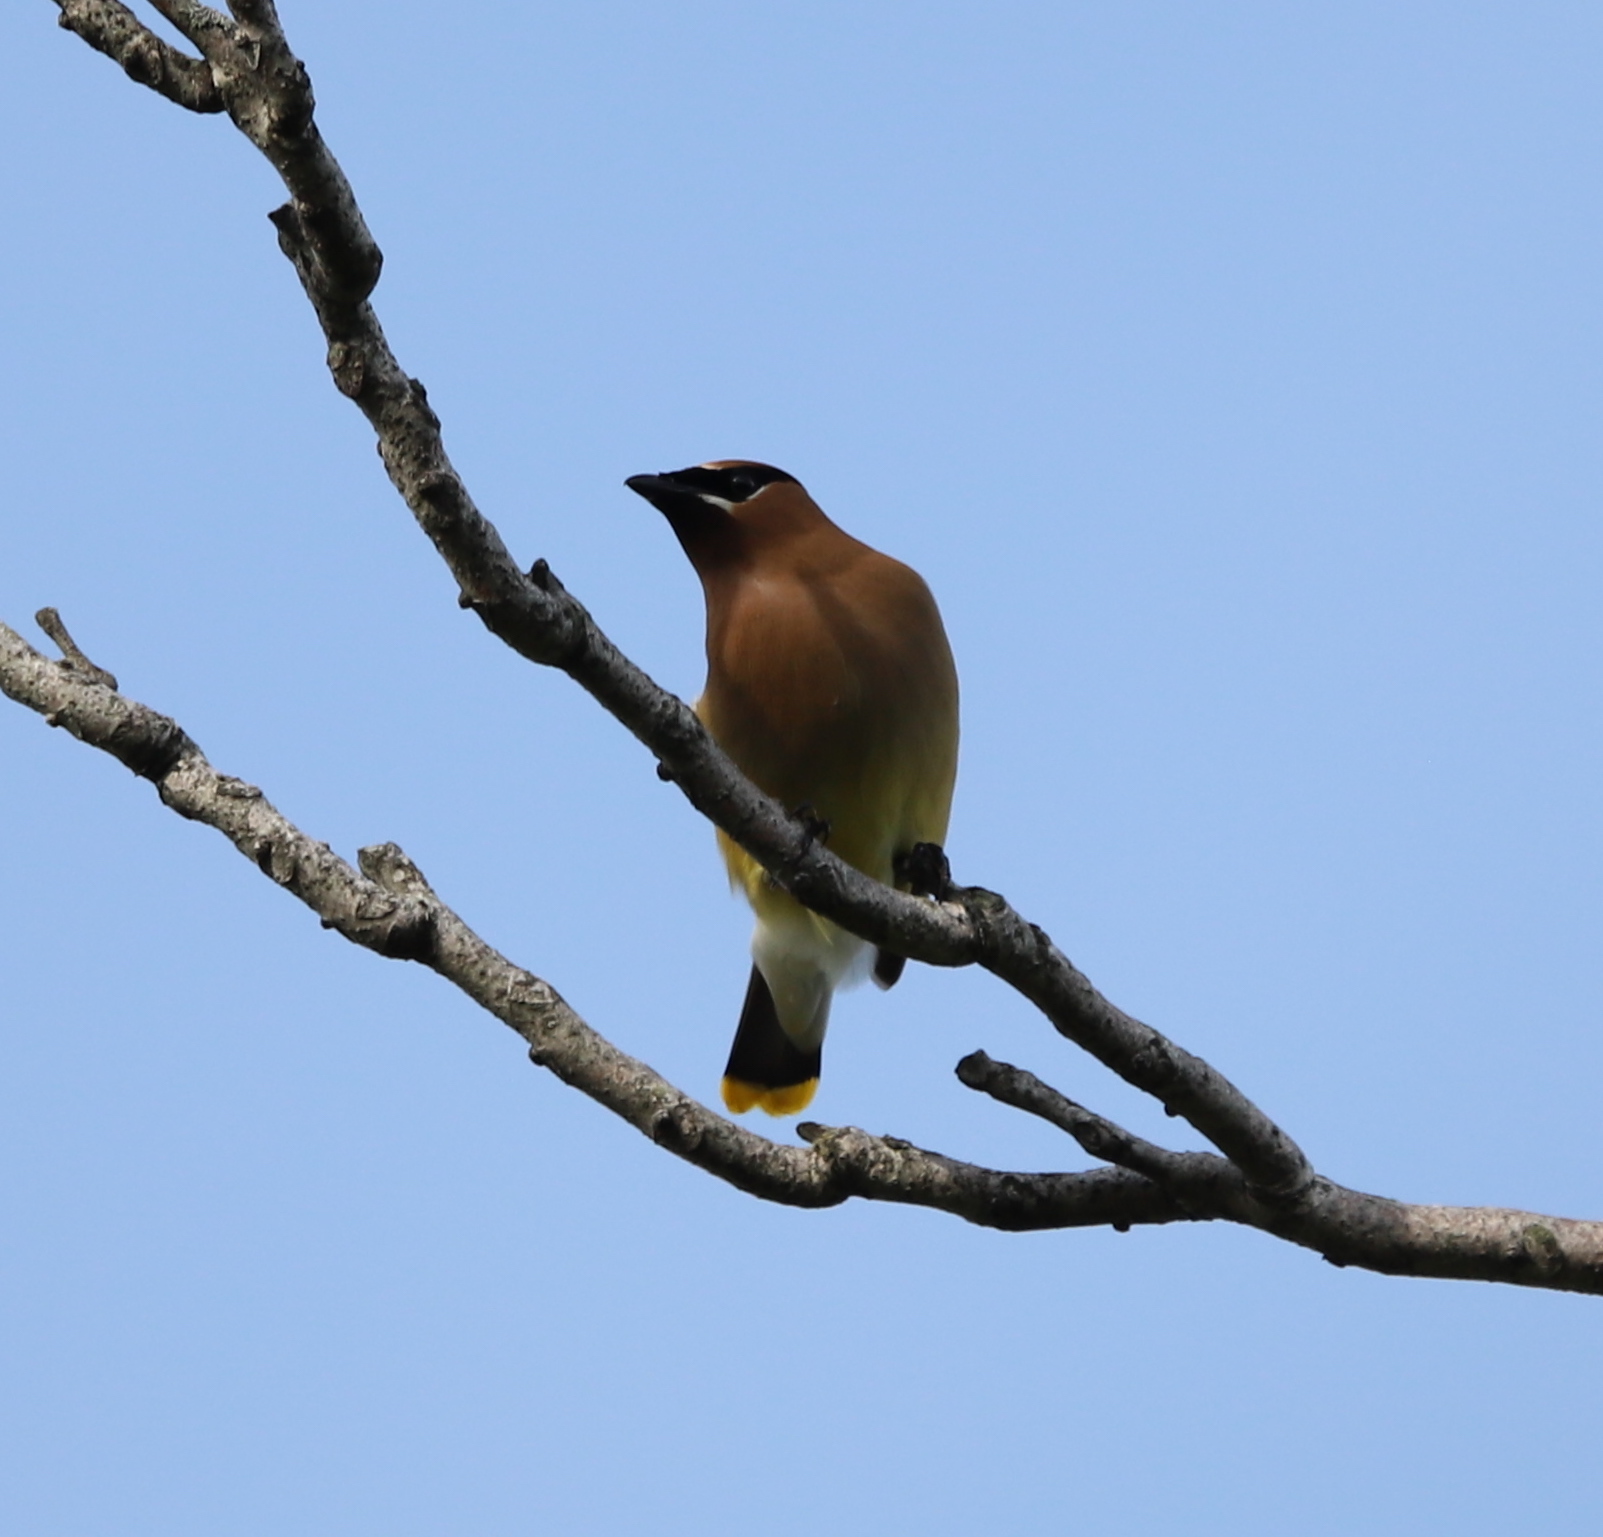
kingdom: Animalia
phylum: Chordata
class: Aves
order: Passeriformes
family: Bombycillidae
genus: Bombycilla
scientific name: Bombycilla cedrorum
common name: Cedar waxwing
